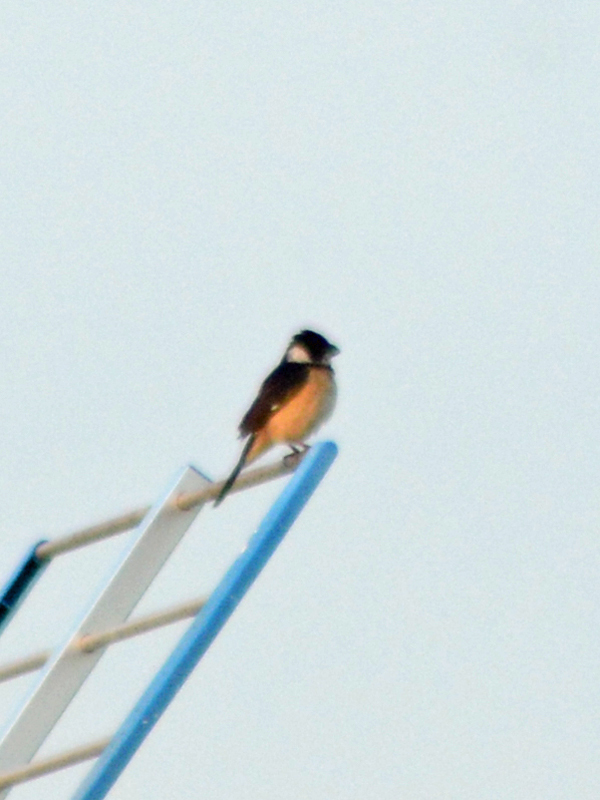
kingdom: Animalia
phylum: Chordata
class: Aves
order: Passeriformes
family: Thraupidae
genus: Sporophila
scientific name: Sporophila torqueola
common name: White-collared seedeater
